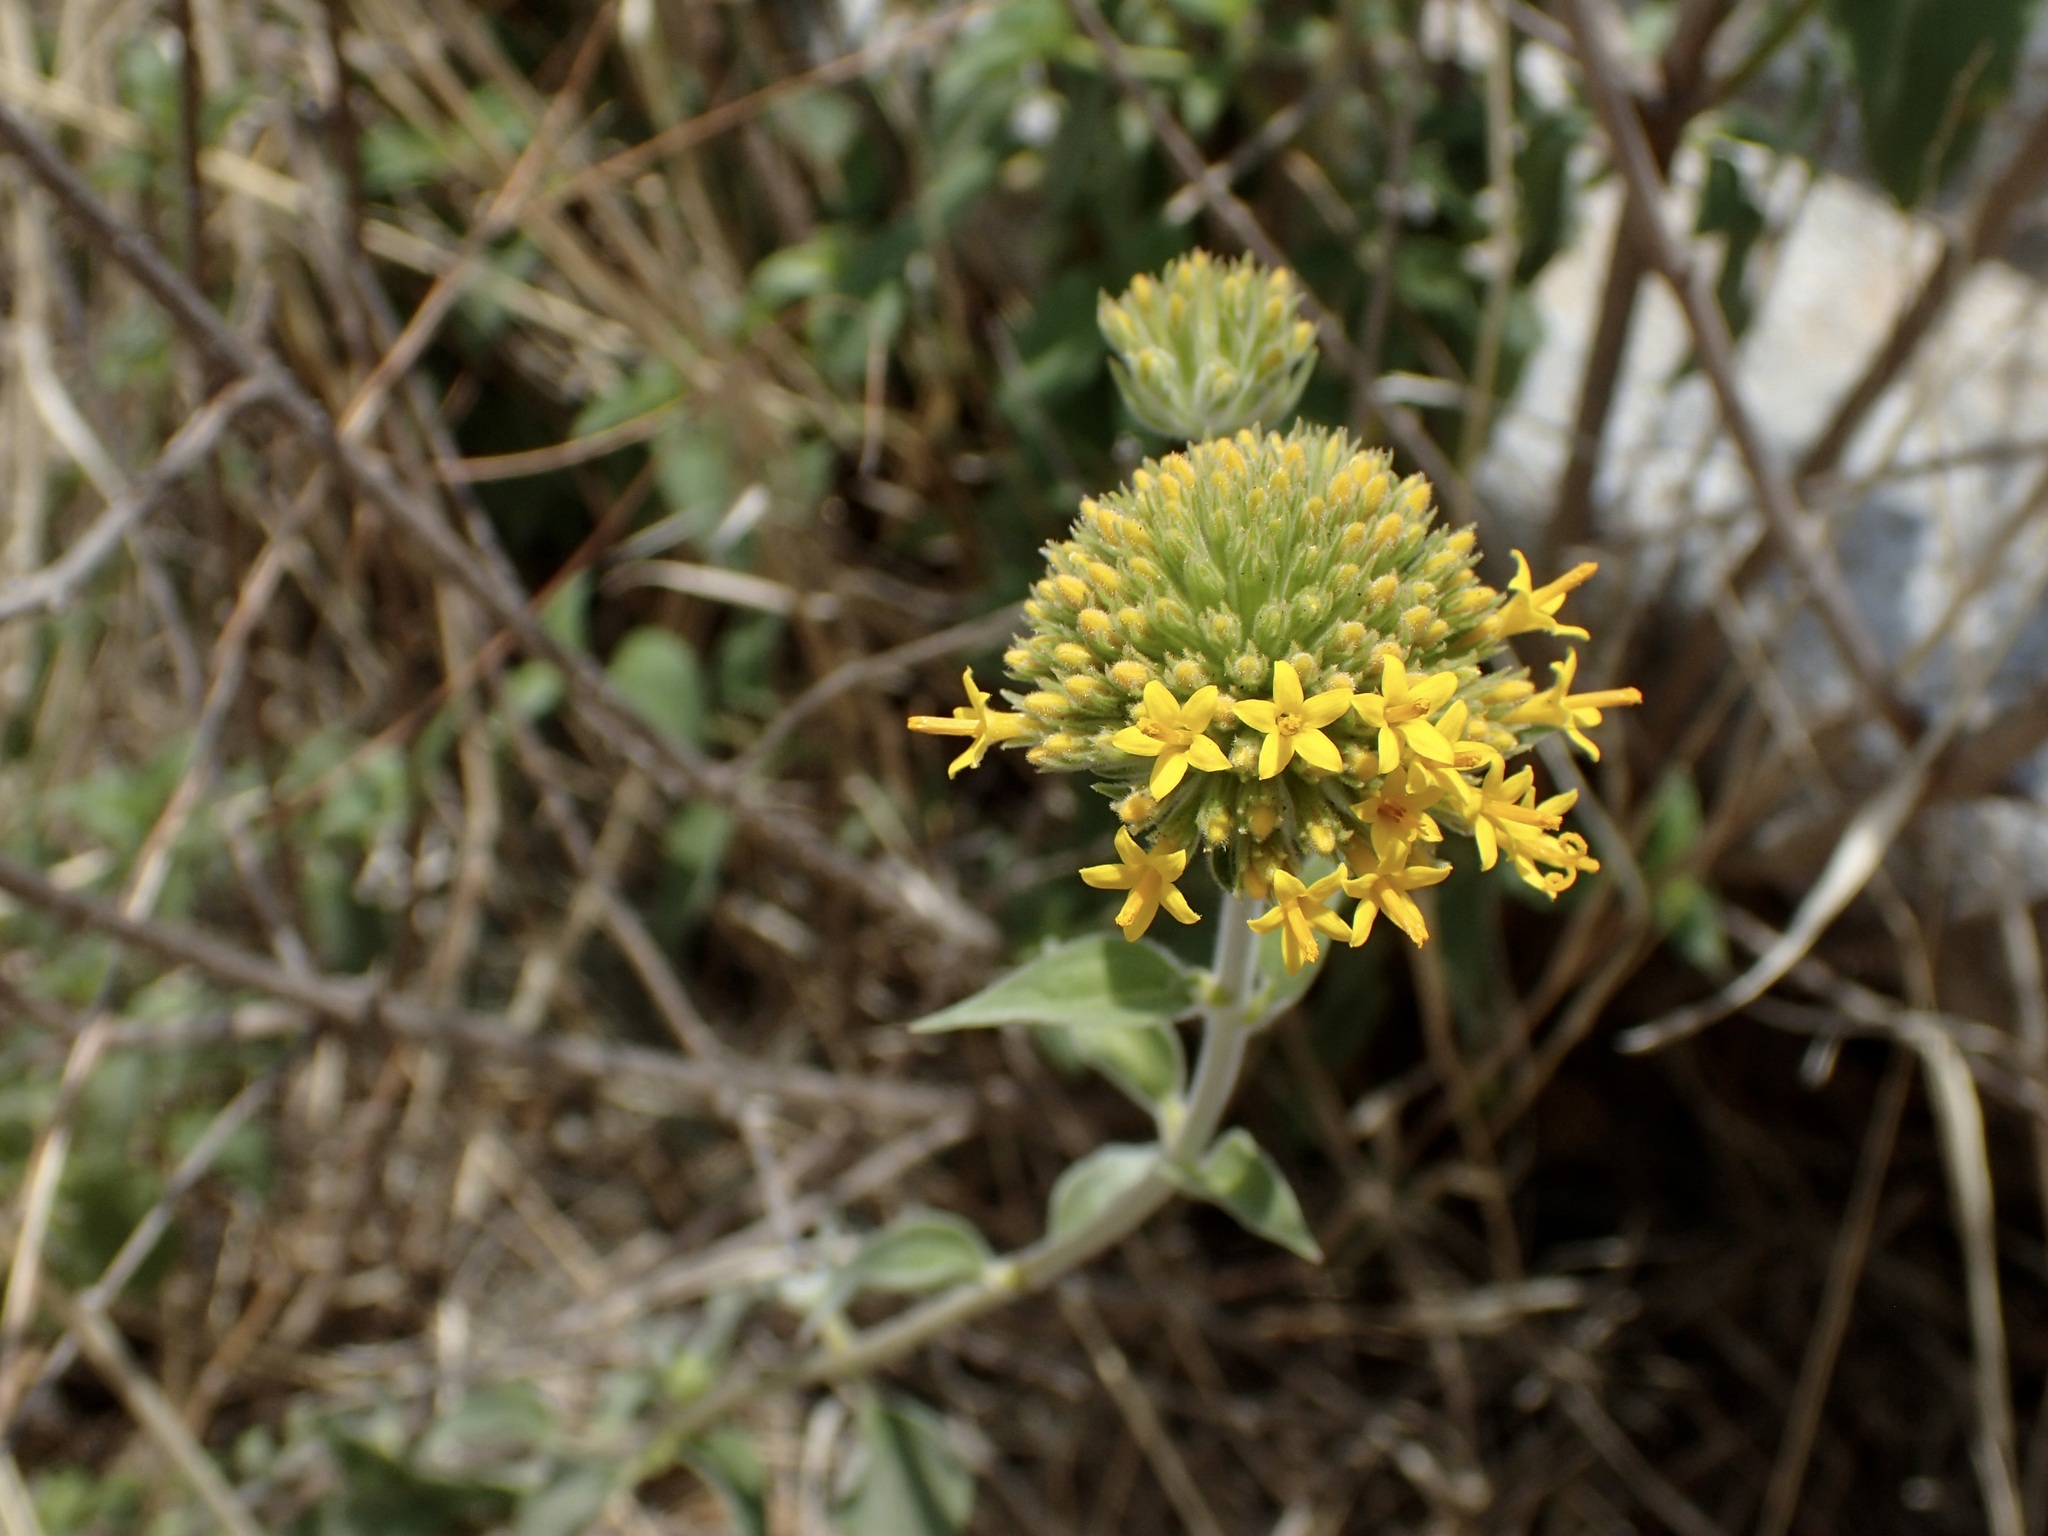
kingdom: Plantae
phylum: Tracheophyta
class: Magnoliopsida
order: Asterales
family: Asteraceae
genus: Lagascea
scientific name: Lagascea decipiens
